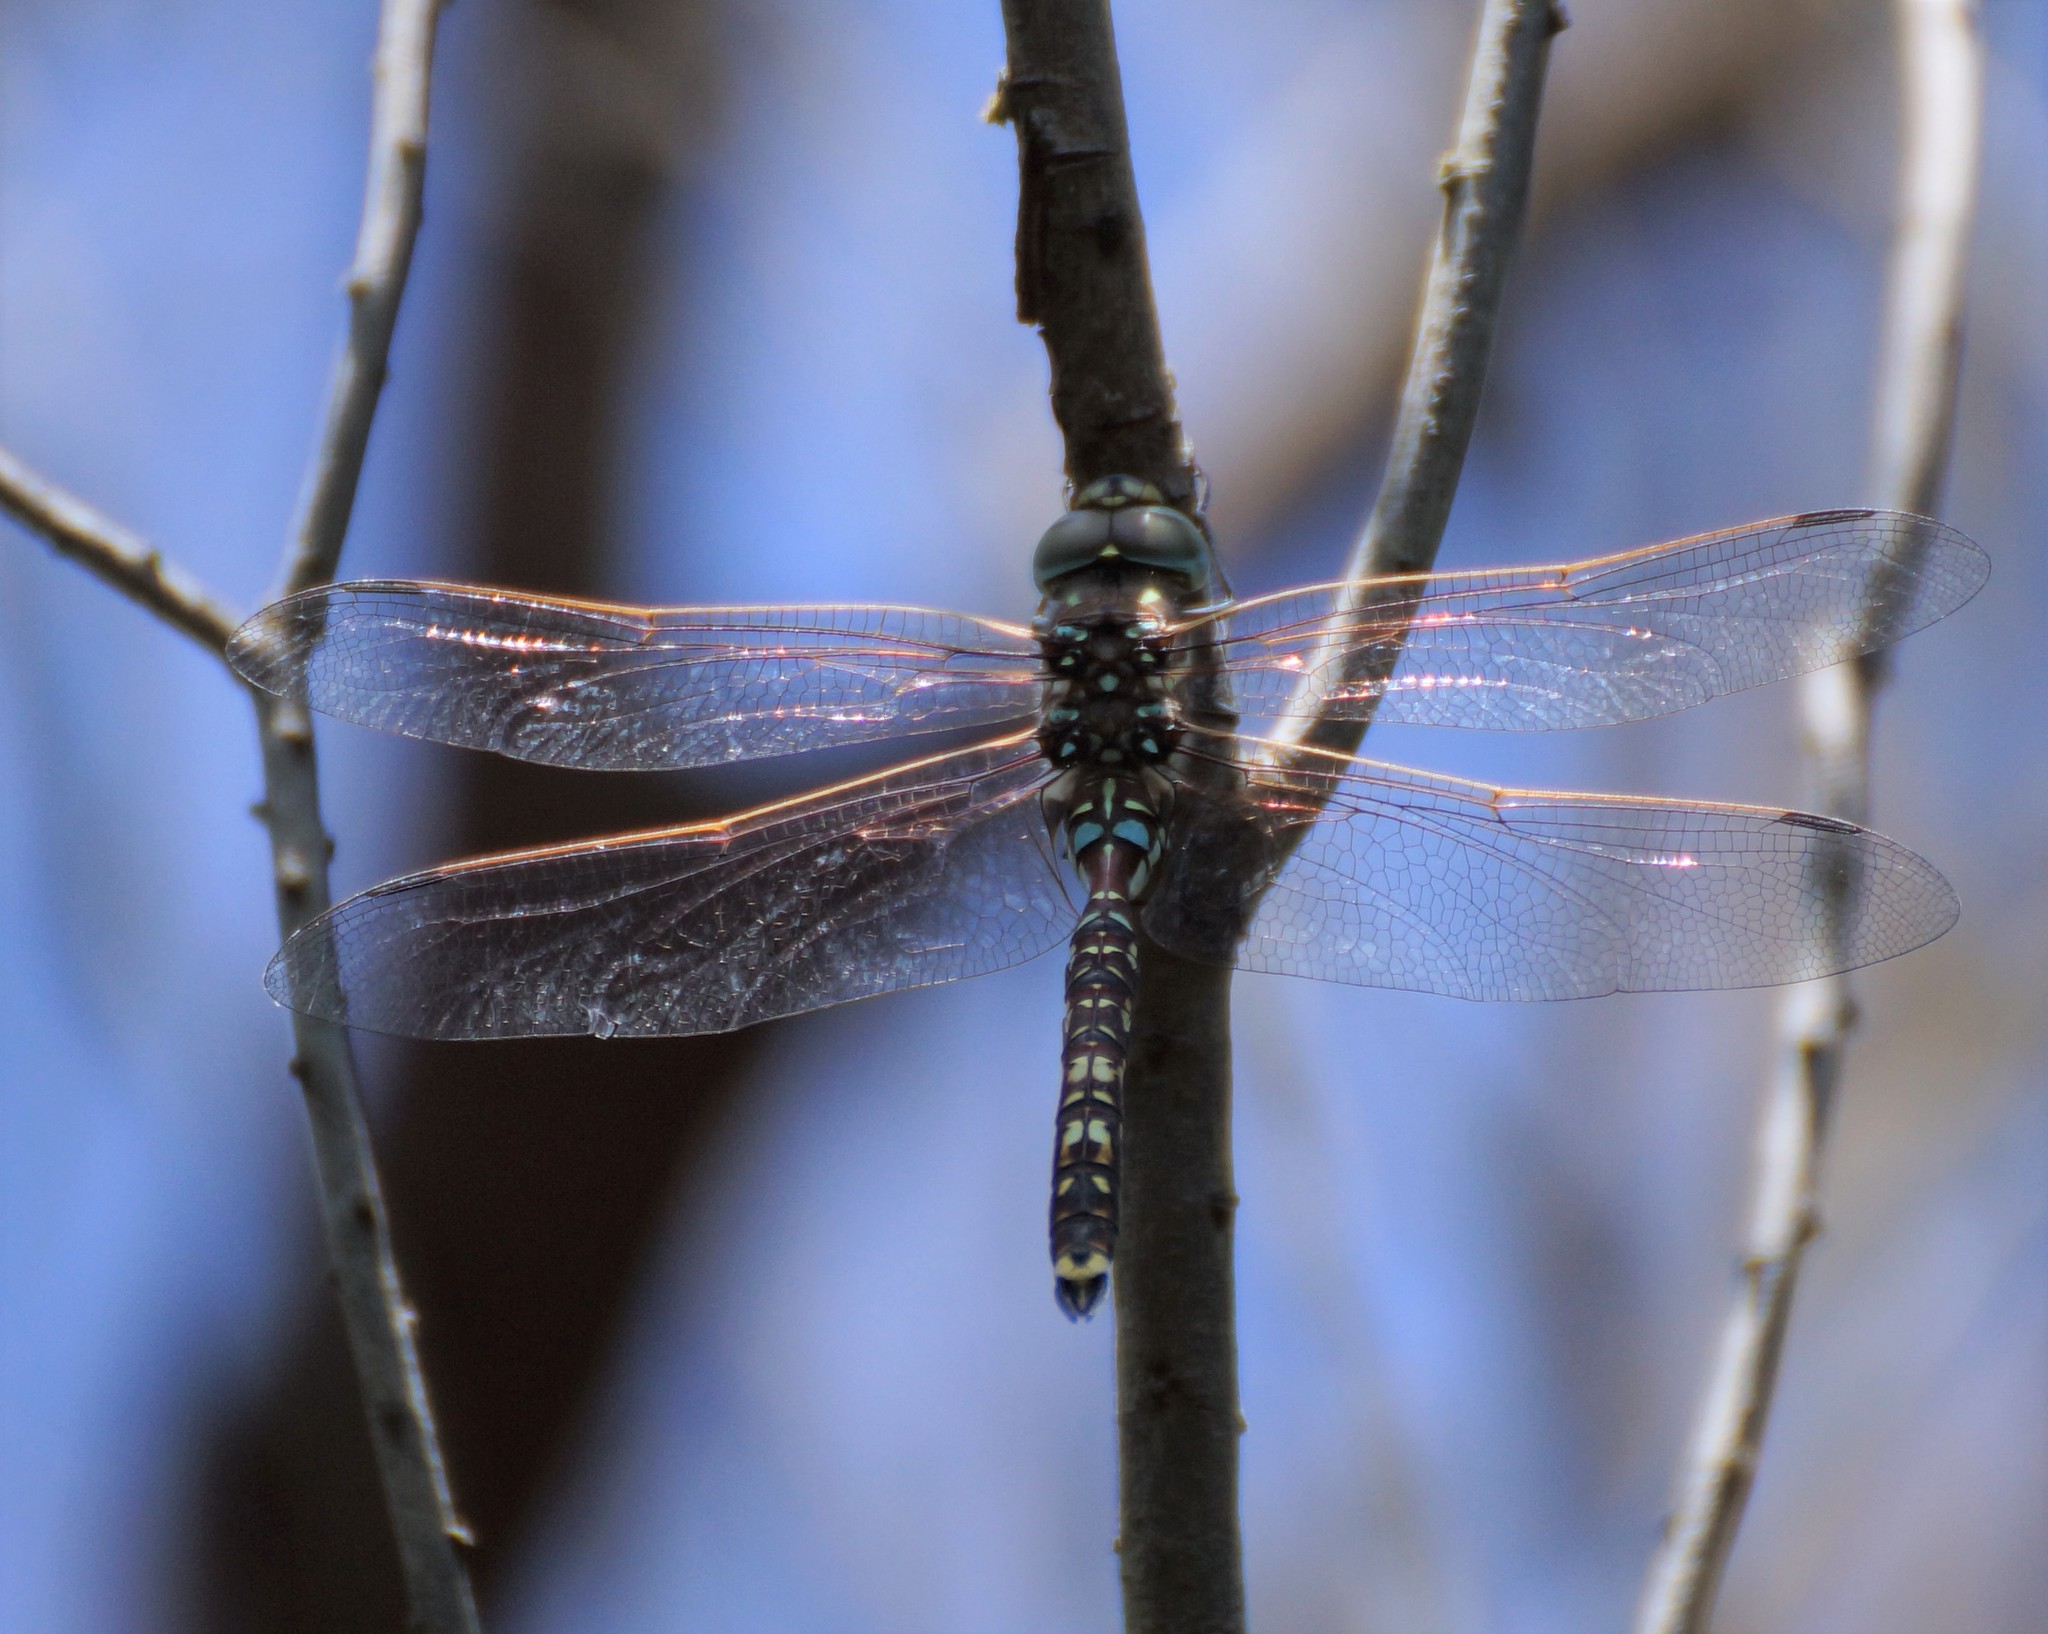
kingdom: Animalia
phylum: Arthropoda
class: Insecta
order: Odonata
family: Aeshnidae
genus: Aeshna
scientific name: Aeshna brevistyla
